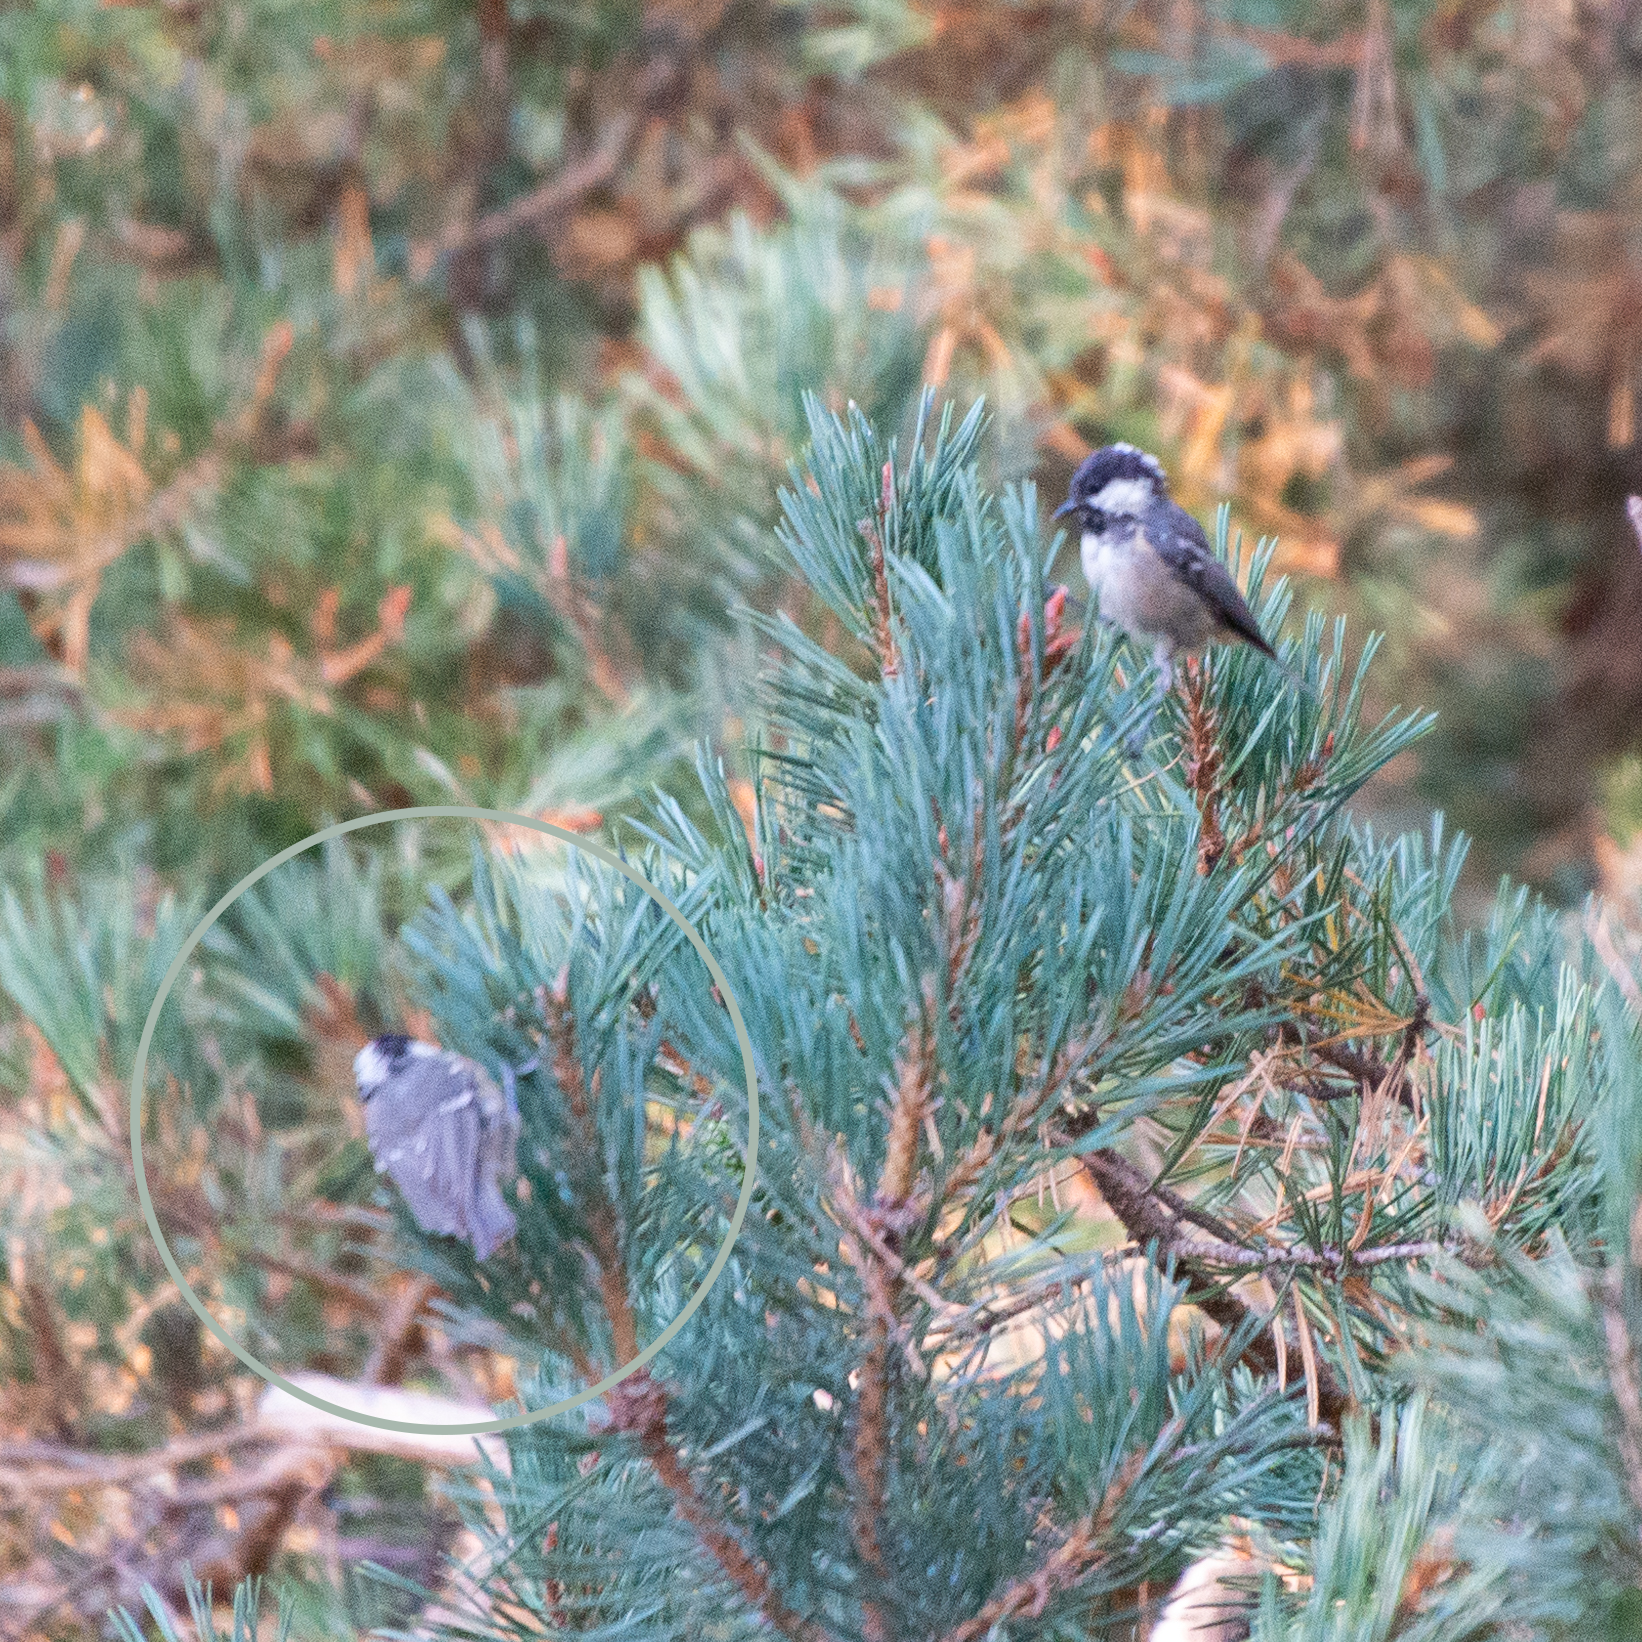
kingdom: Animalia
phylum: Chordata
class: Aves
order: Passeriformes
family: Paridae
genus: Periparus
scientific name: Periparus ater
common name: Coal tit
